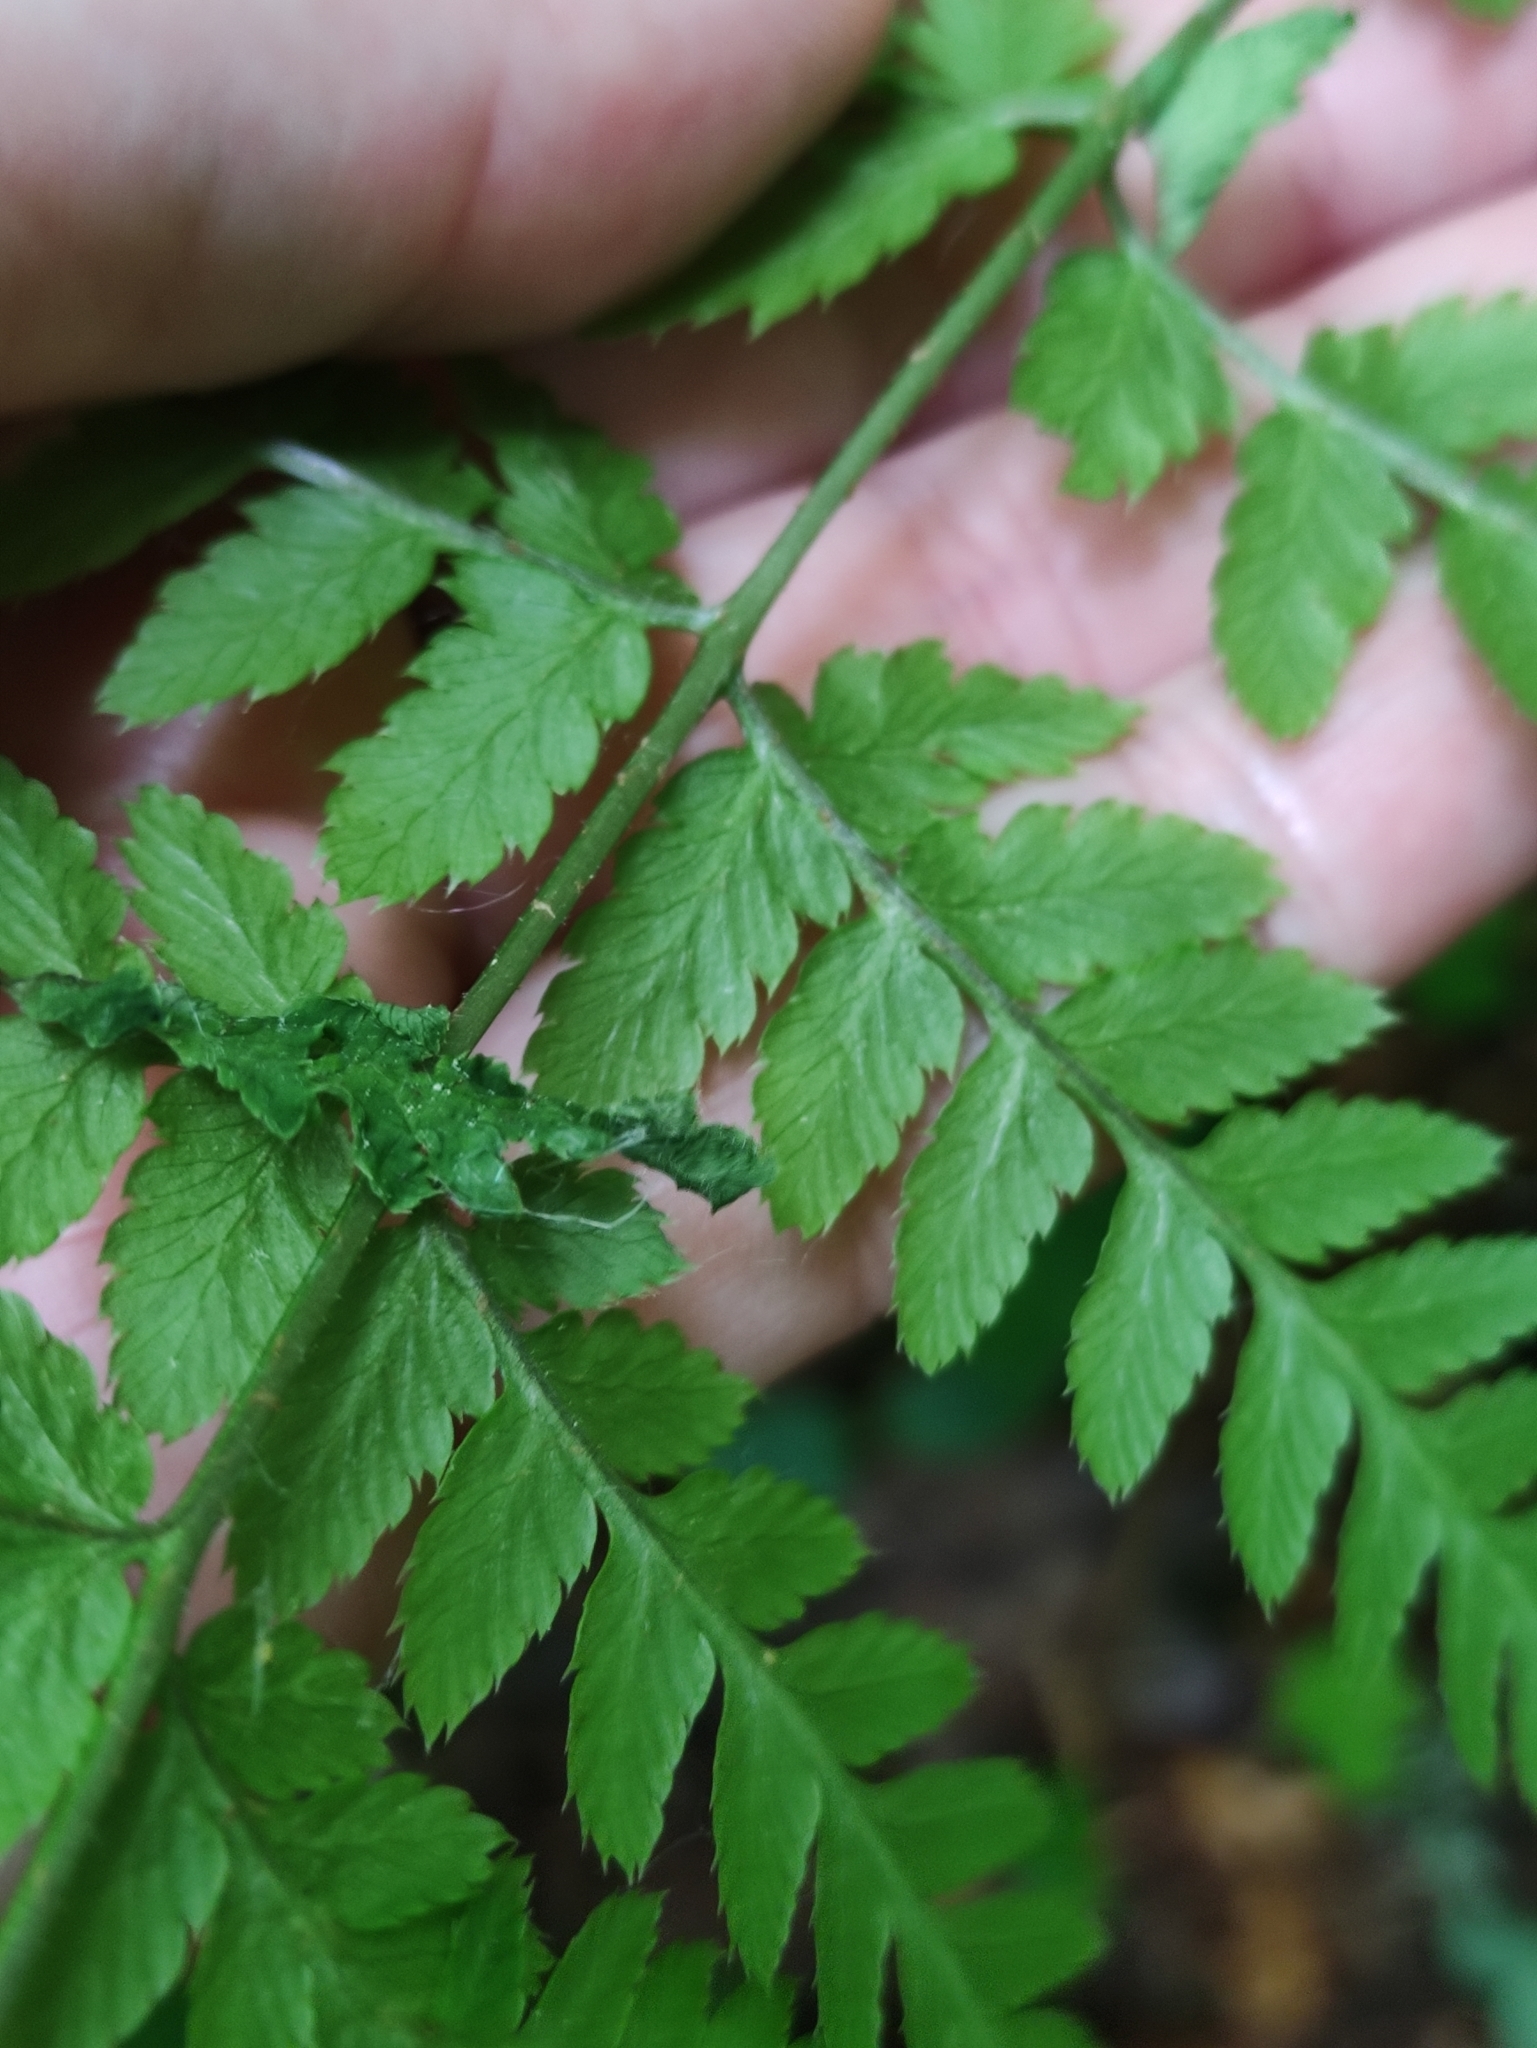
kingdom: Plantae
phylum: Tracheophyta
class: Polypodiopsida
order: Polypodiales
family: Dryopteridaceae
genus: Dryopteris
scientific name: Dryopteris carthusiana
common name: Narrow buckler-fern
